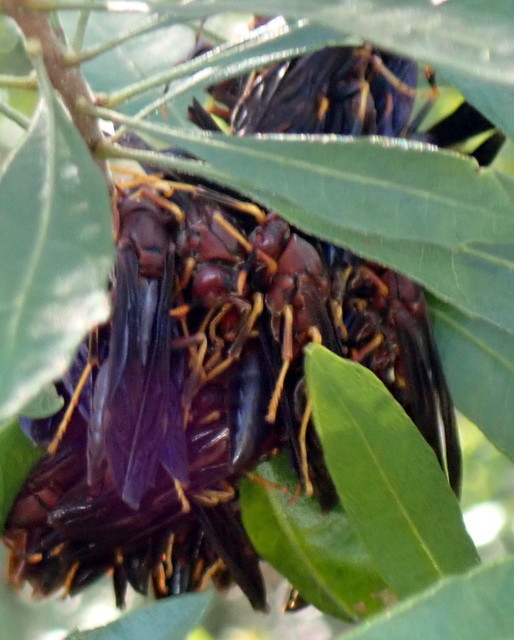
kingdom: Animalia
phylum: Arthropoda
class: Insecta
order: Hymenoptera
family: Eumenidae
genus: Polistes
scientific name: Polistes annularis
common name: Ringed paper wasp
